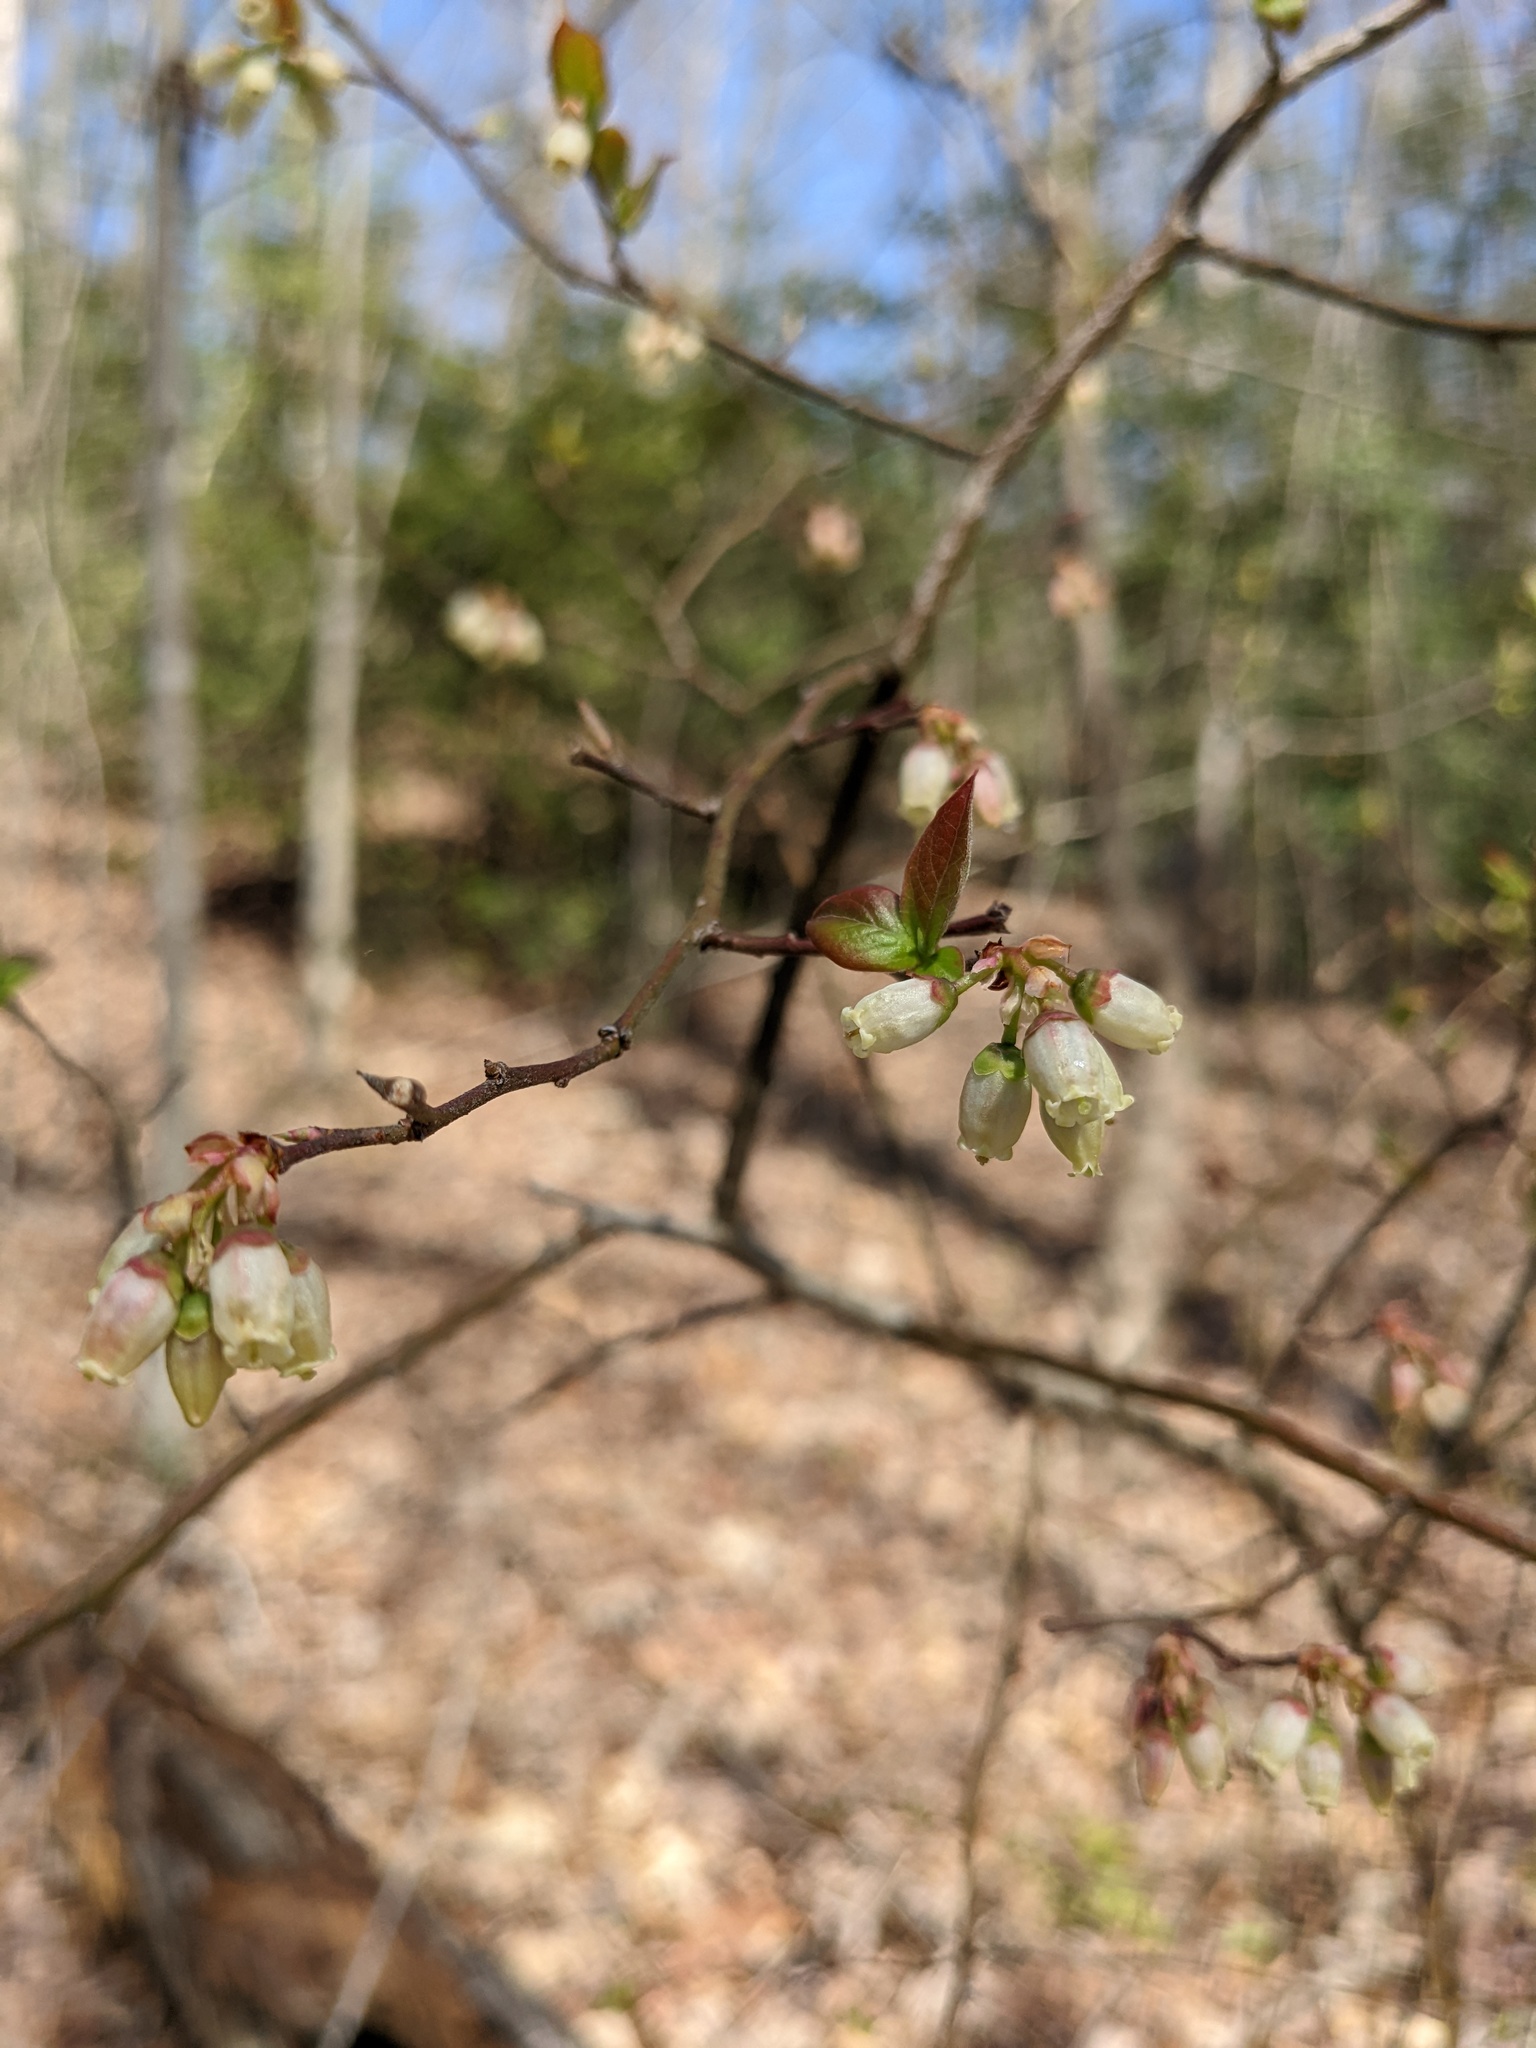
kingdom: Plantae
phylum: Tracheophyta
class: Magnoliopsida
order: Ericales
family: Ericaceae
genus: Vaccinium
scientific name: Vaccinium corymbosum
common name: Blueberry
